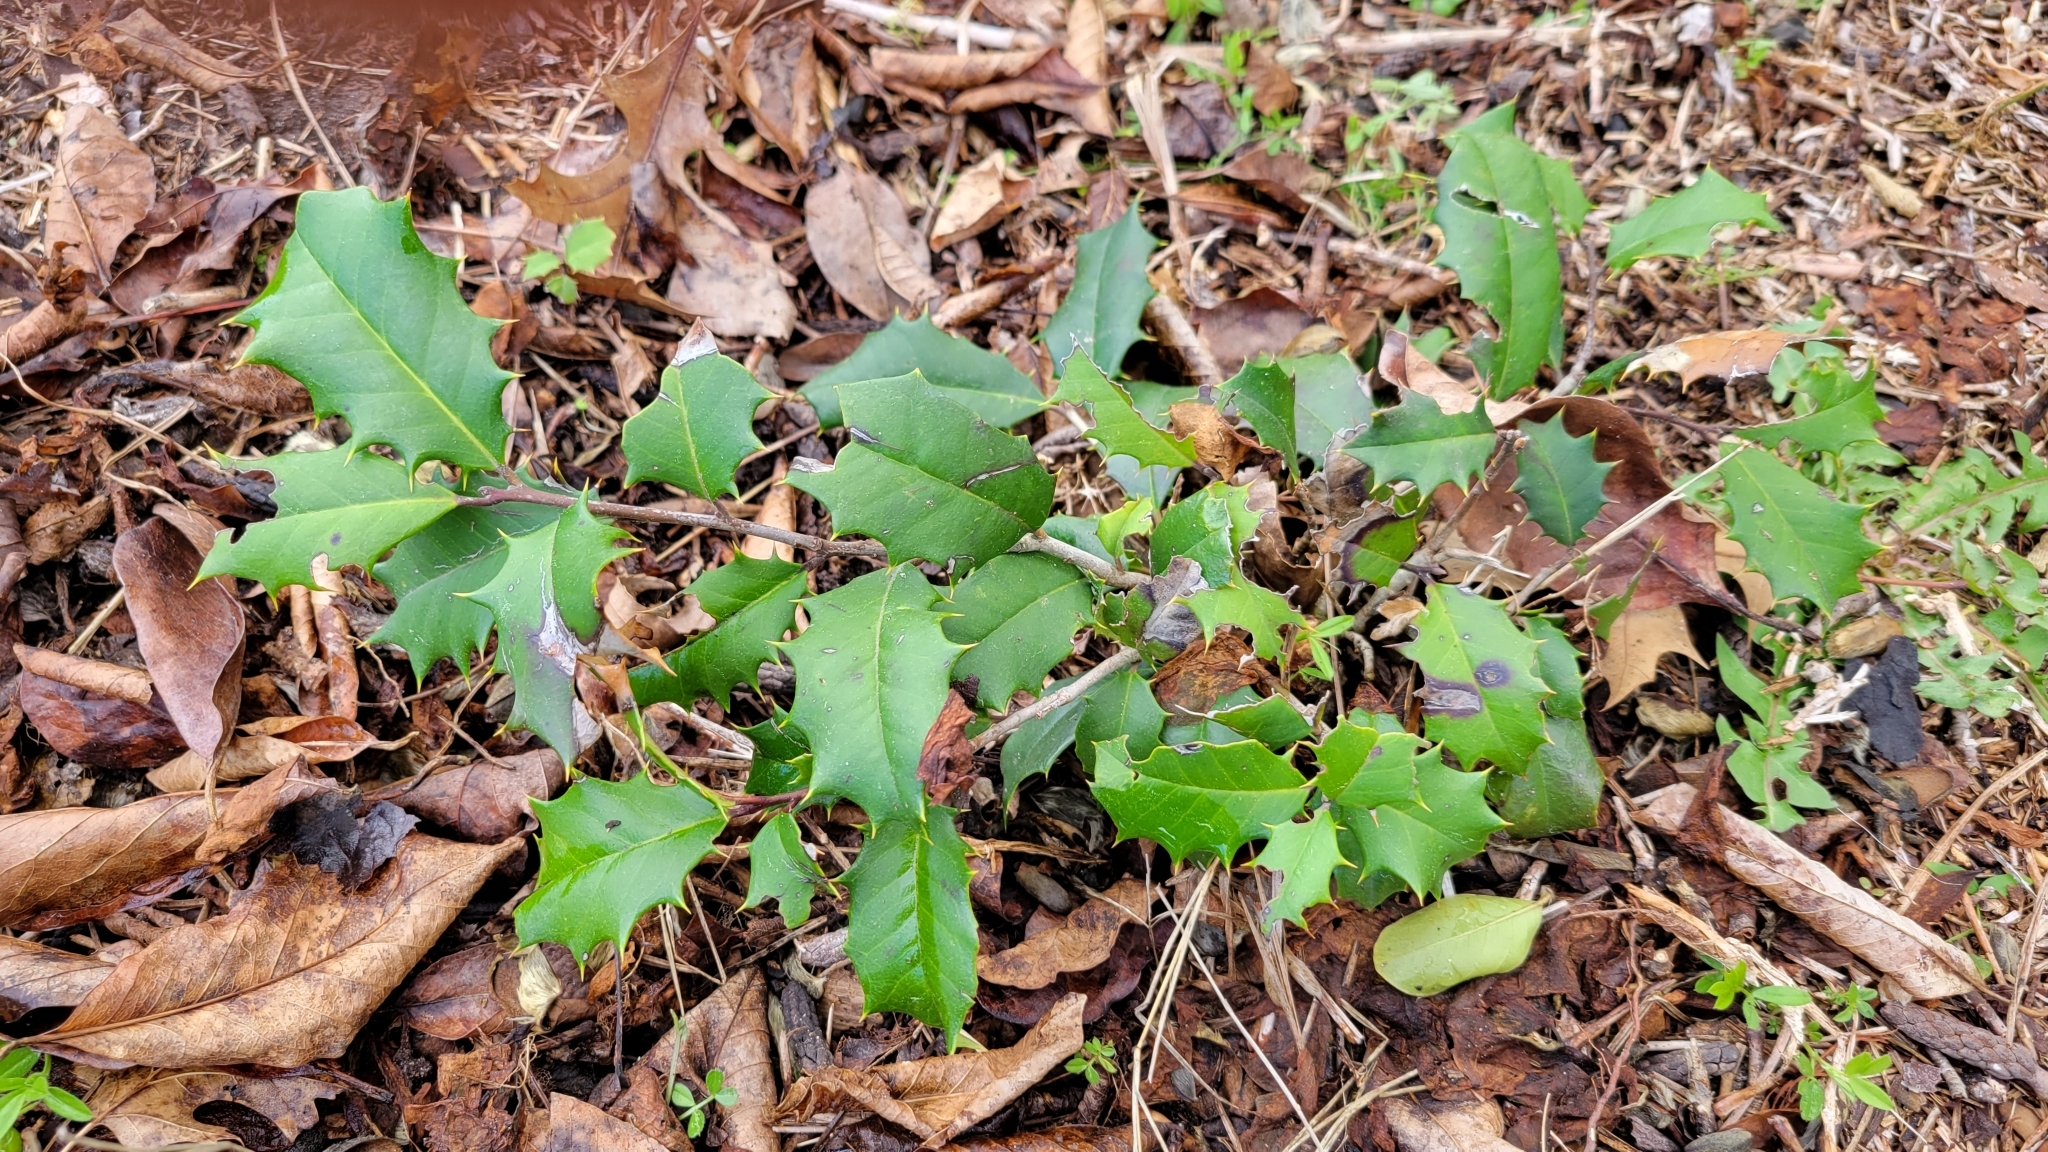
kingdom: Plantae
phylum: Tracheophyta
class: Magnoliopsida
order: Aquifoliales
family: Aquifoliaceae
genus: Ilex
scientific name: Ilex opaca
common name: American holly
